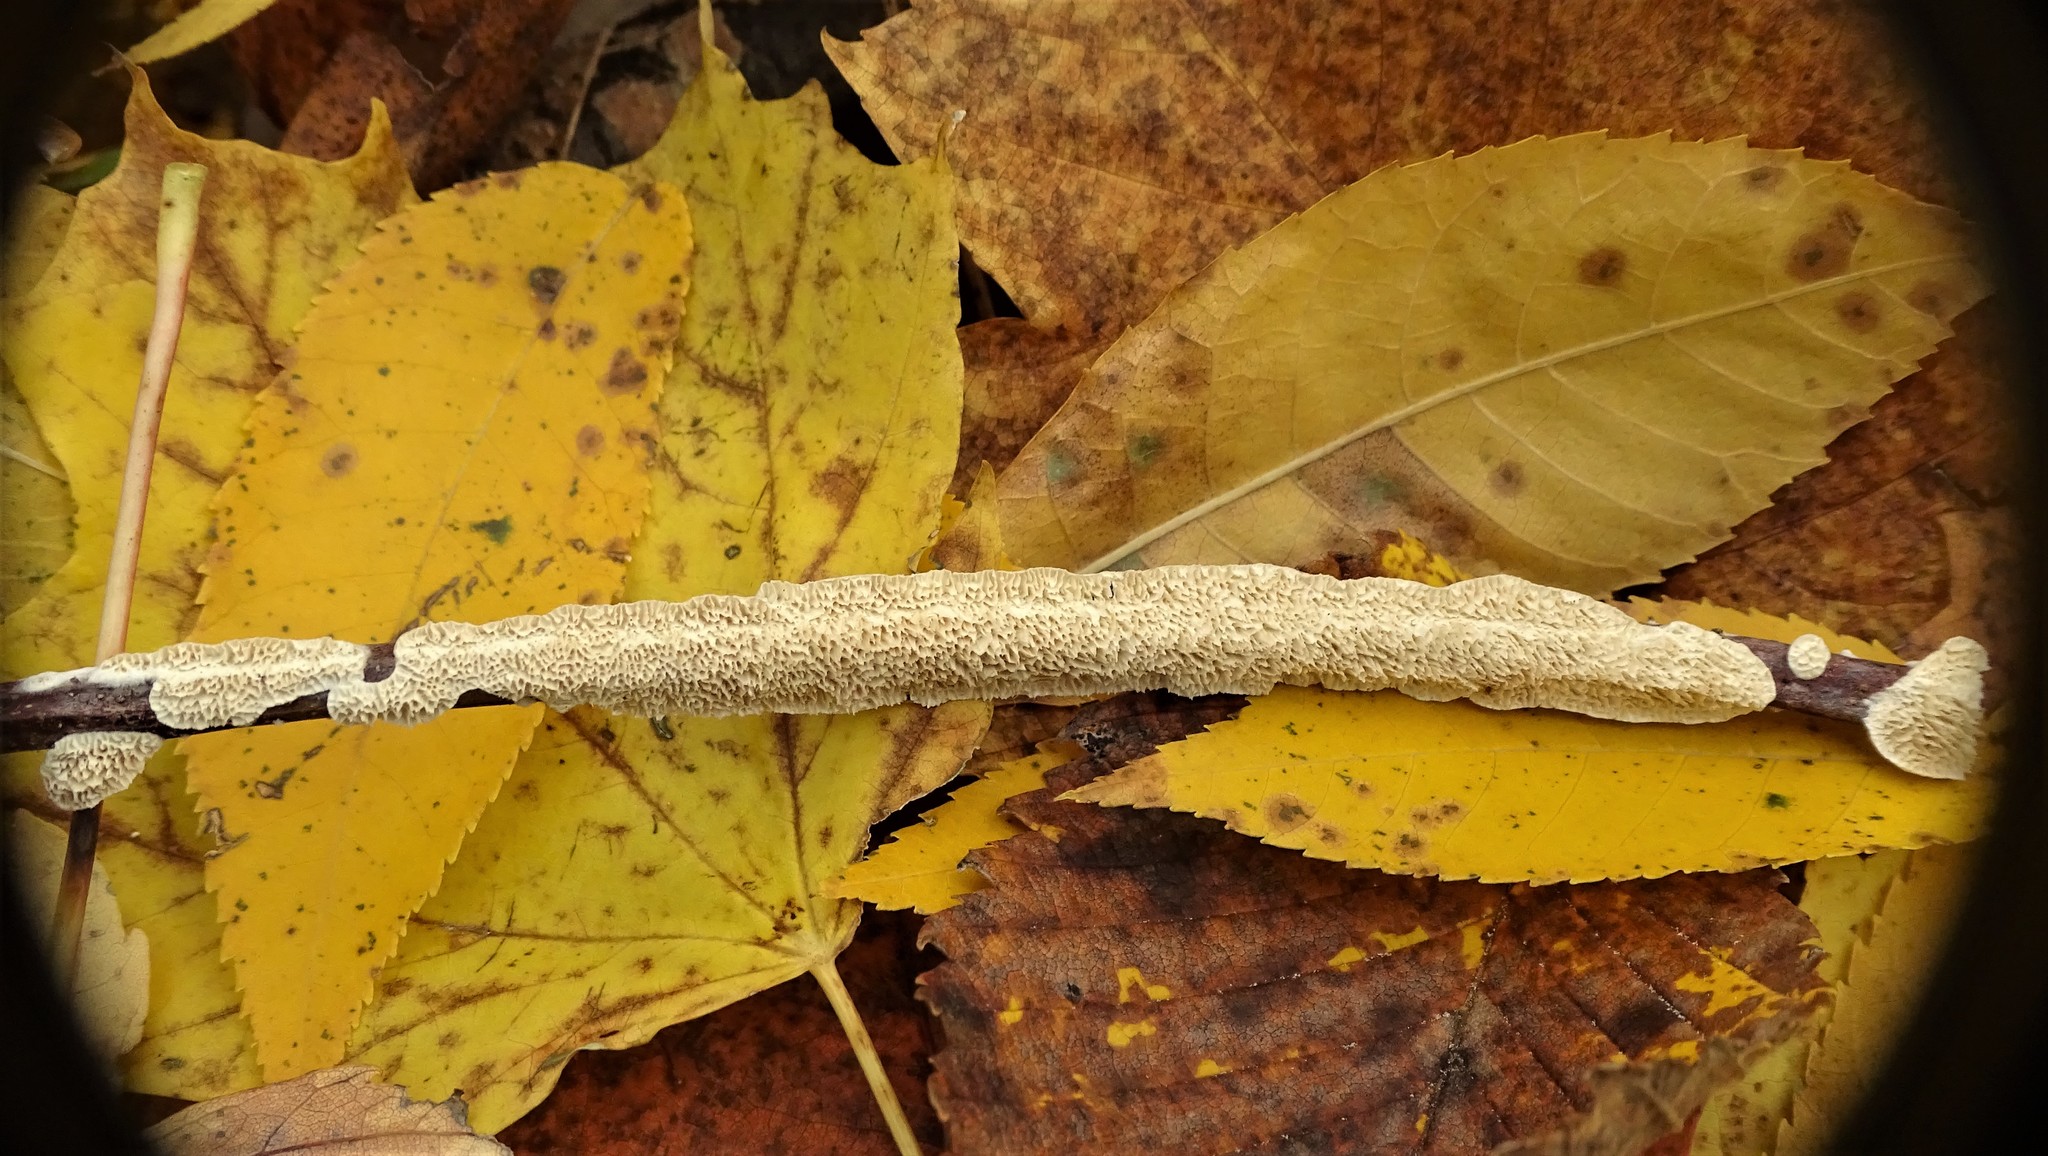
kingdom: Fungi
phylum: Basidiomycota
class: Agaricomycetes
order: Polyporales
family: Irpicaceae
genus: Irpex
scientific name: Irpex lacteus
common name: Milk-white toothed polypore
